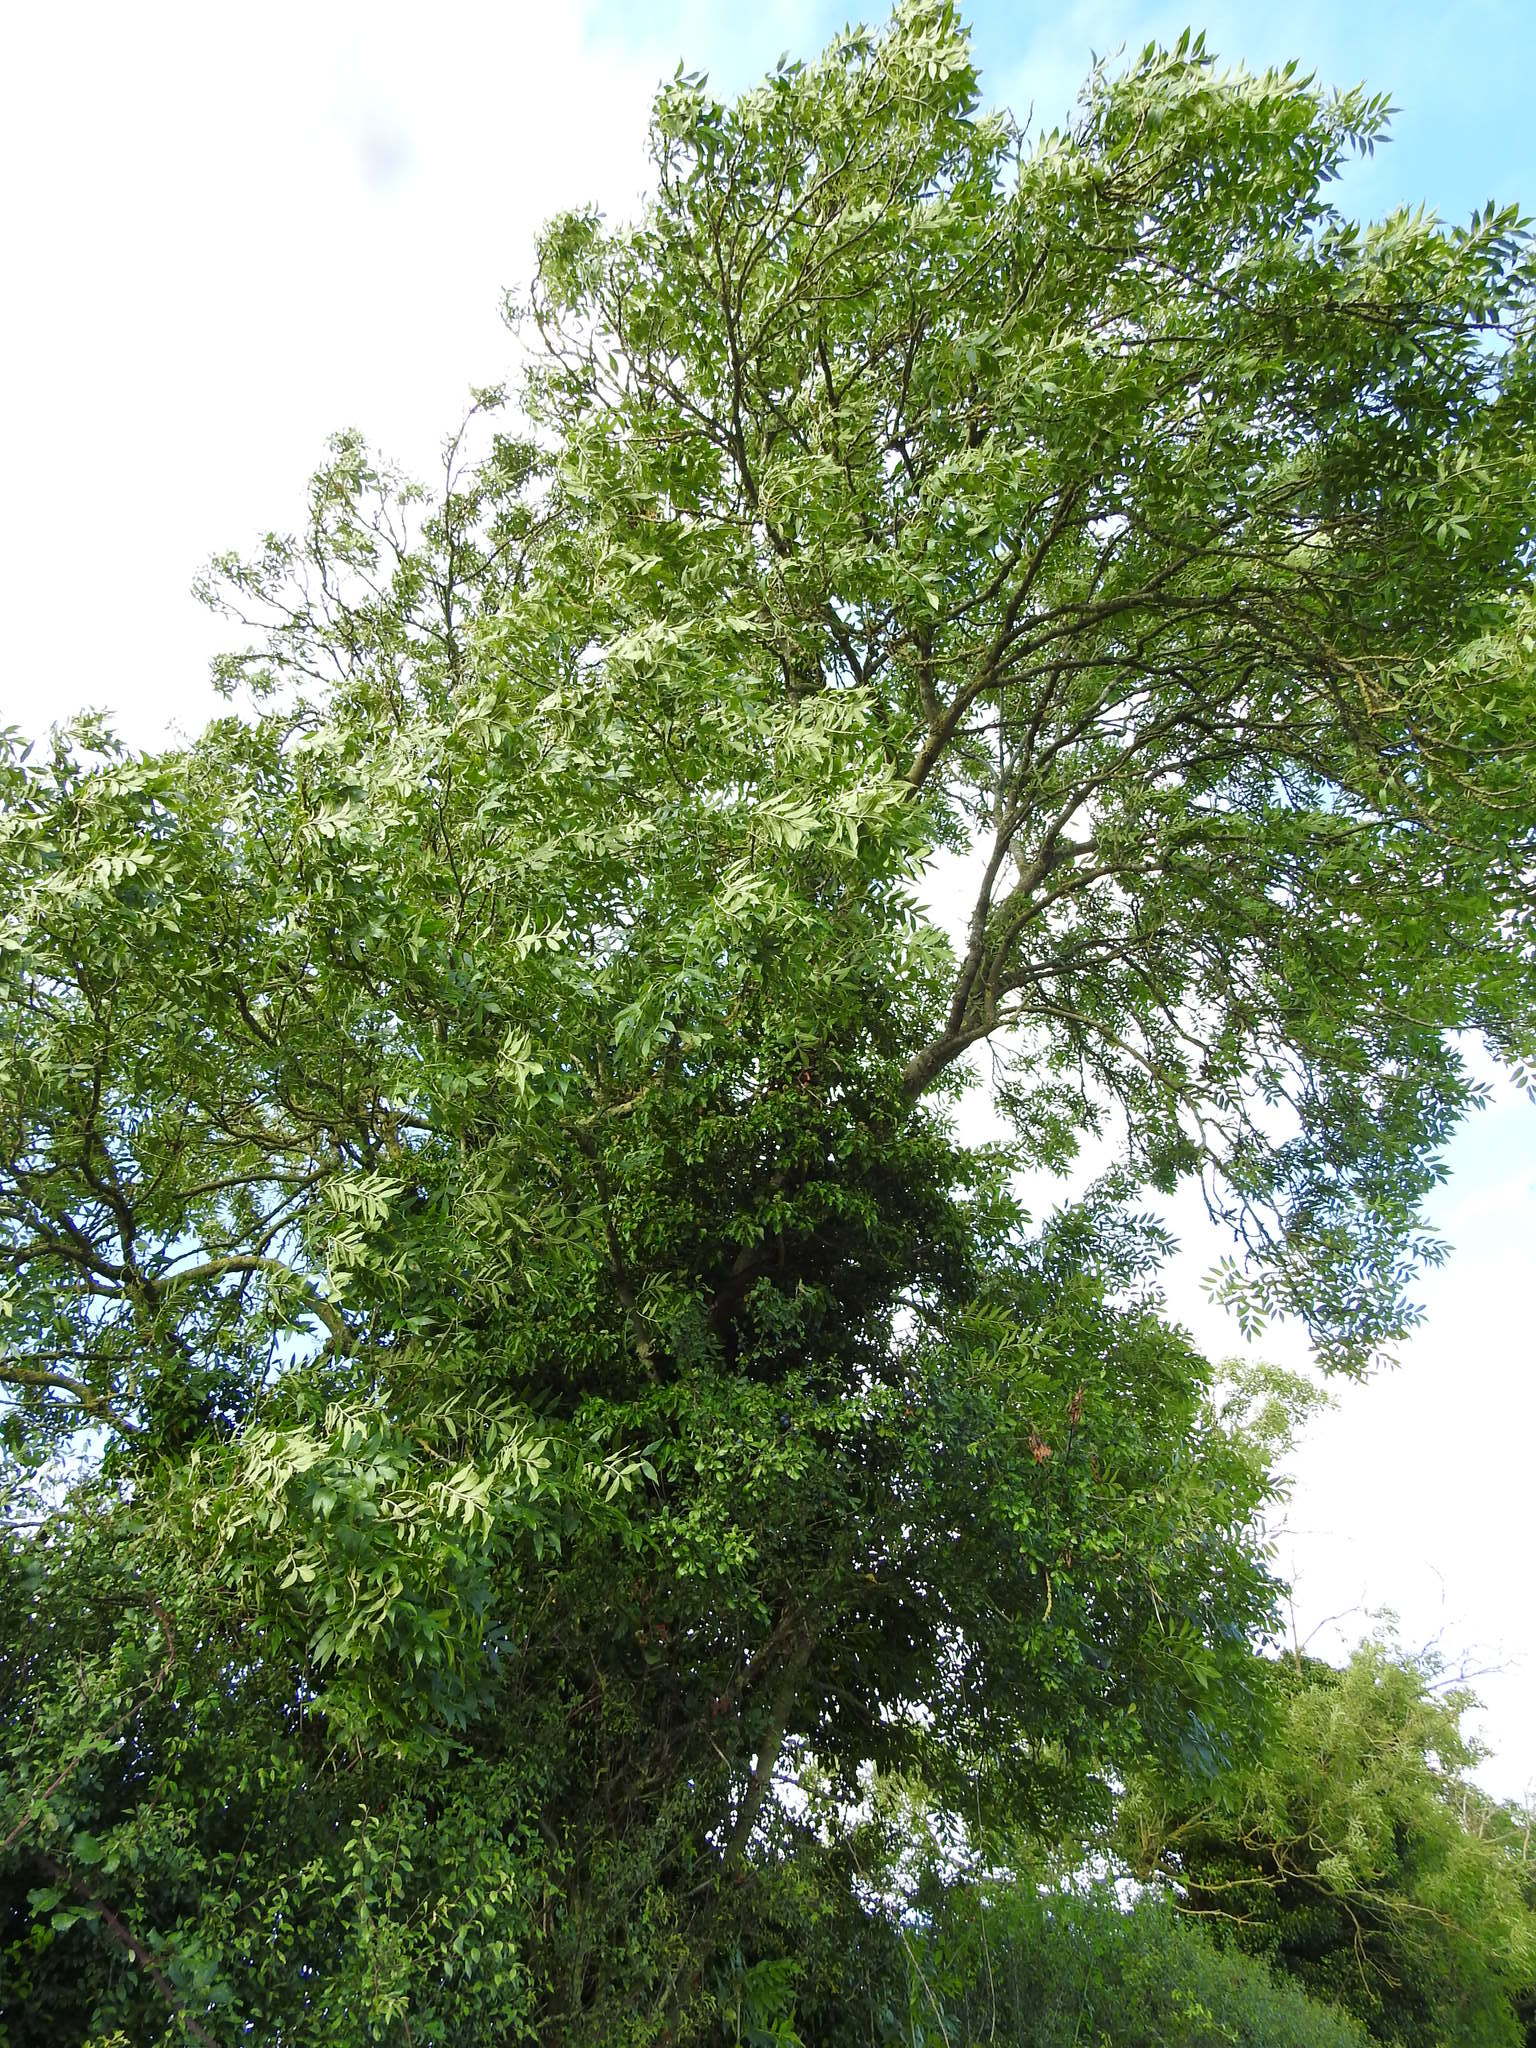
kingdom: Plantae
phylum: Tracheophyta
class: Magnoliopsida
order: Lamiales
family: Oleaceae
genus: Fraxinus
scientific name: Fraxinus excelsior
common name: European ash
